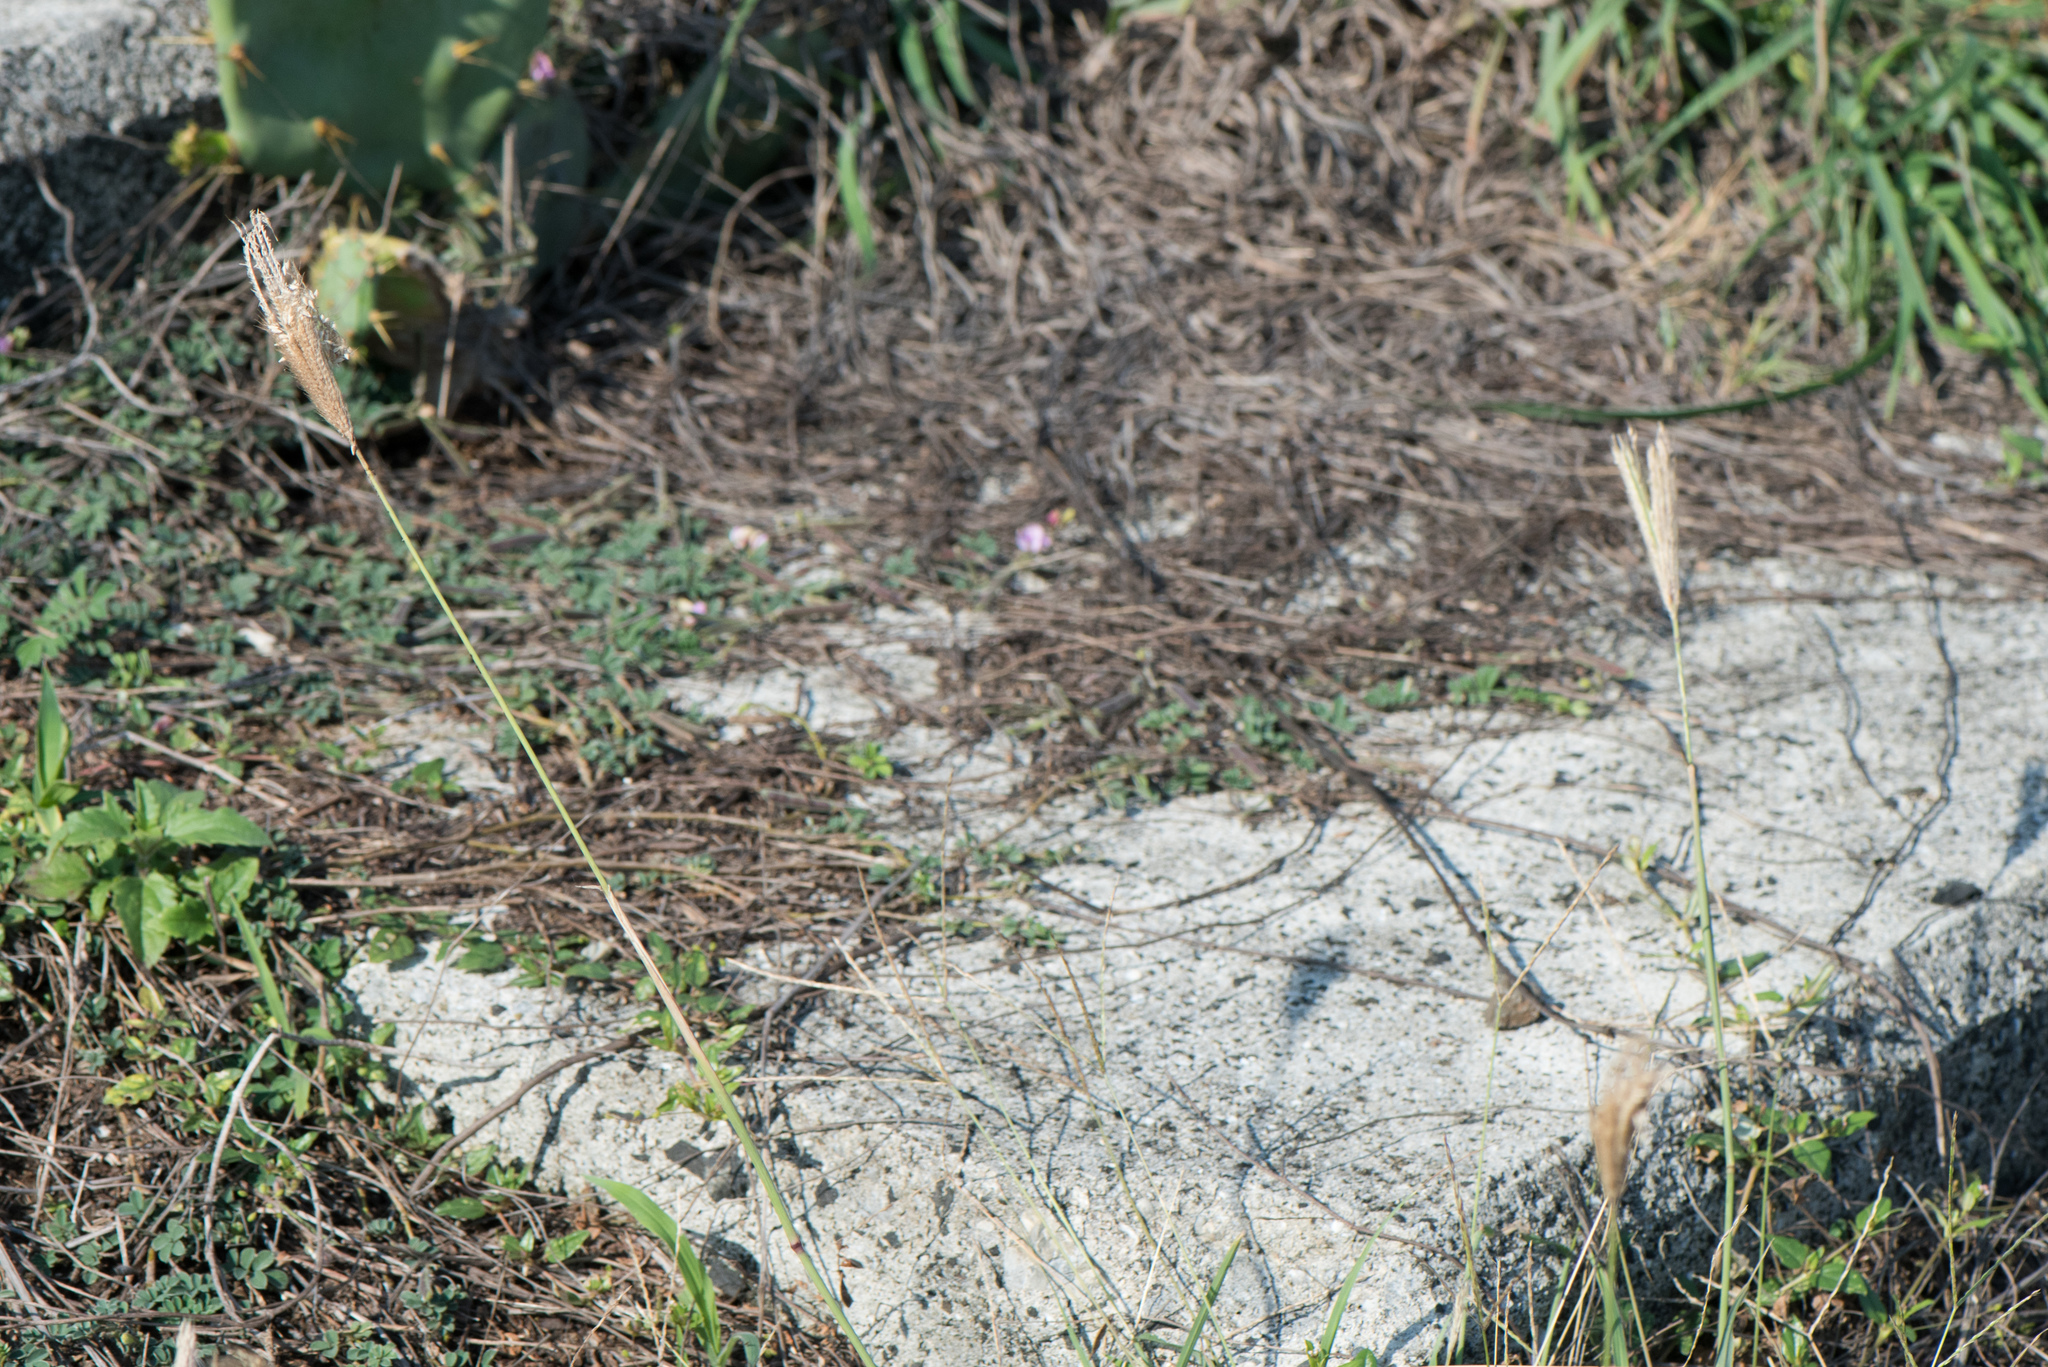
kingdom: Plantae
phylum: Tracheophyta
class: Liliopsida
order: Poales
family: Poaceae
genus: Chloris
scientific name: Chloris formosana
